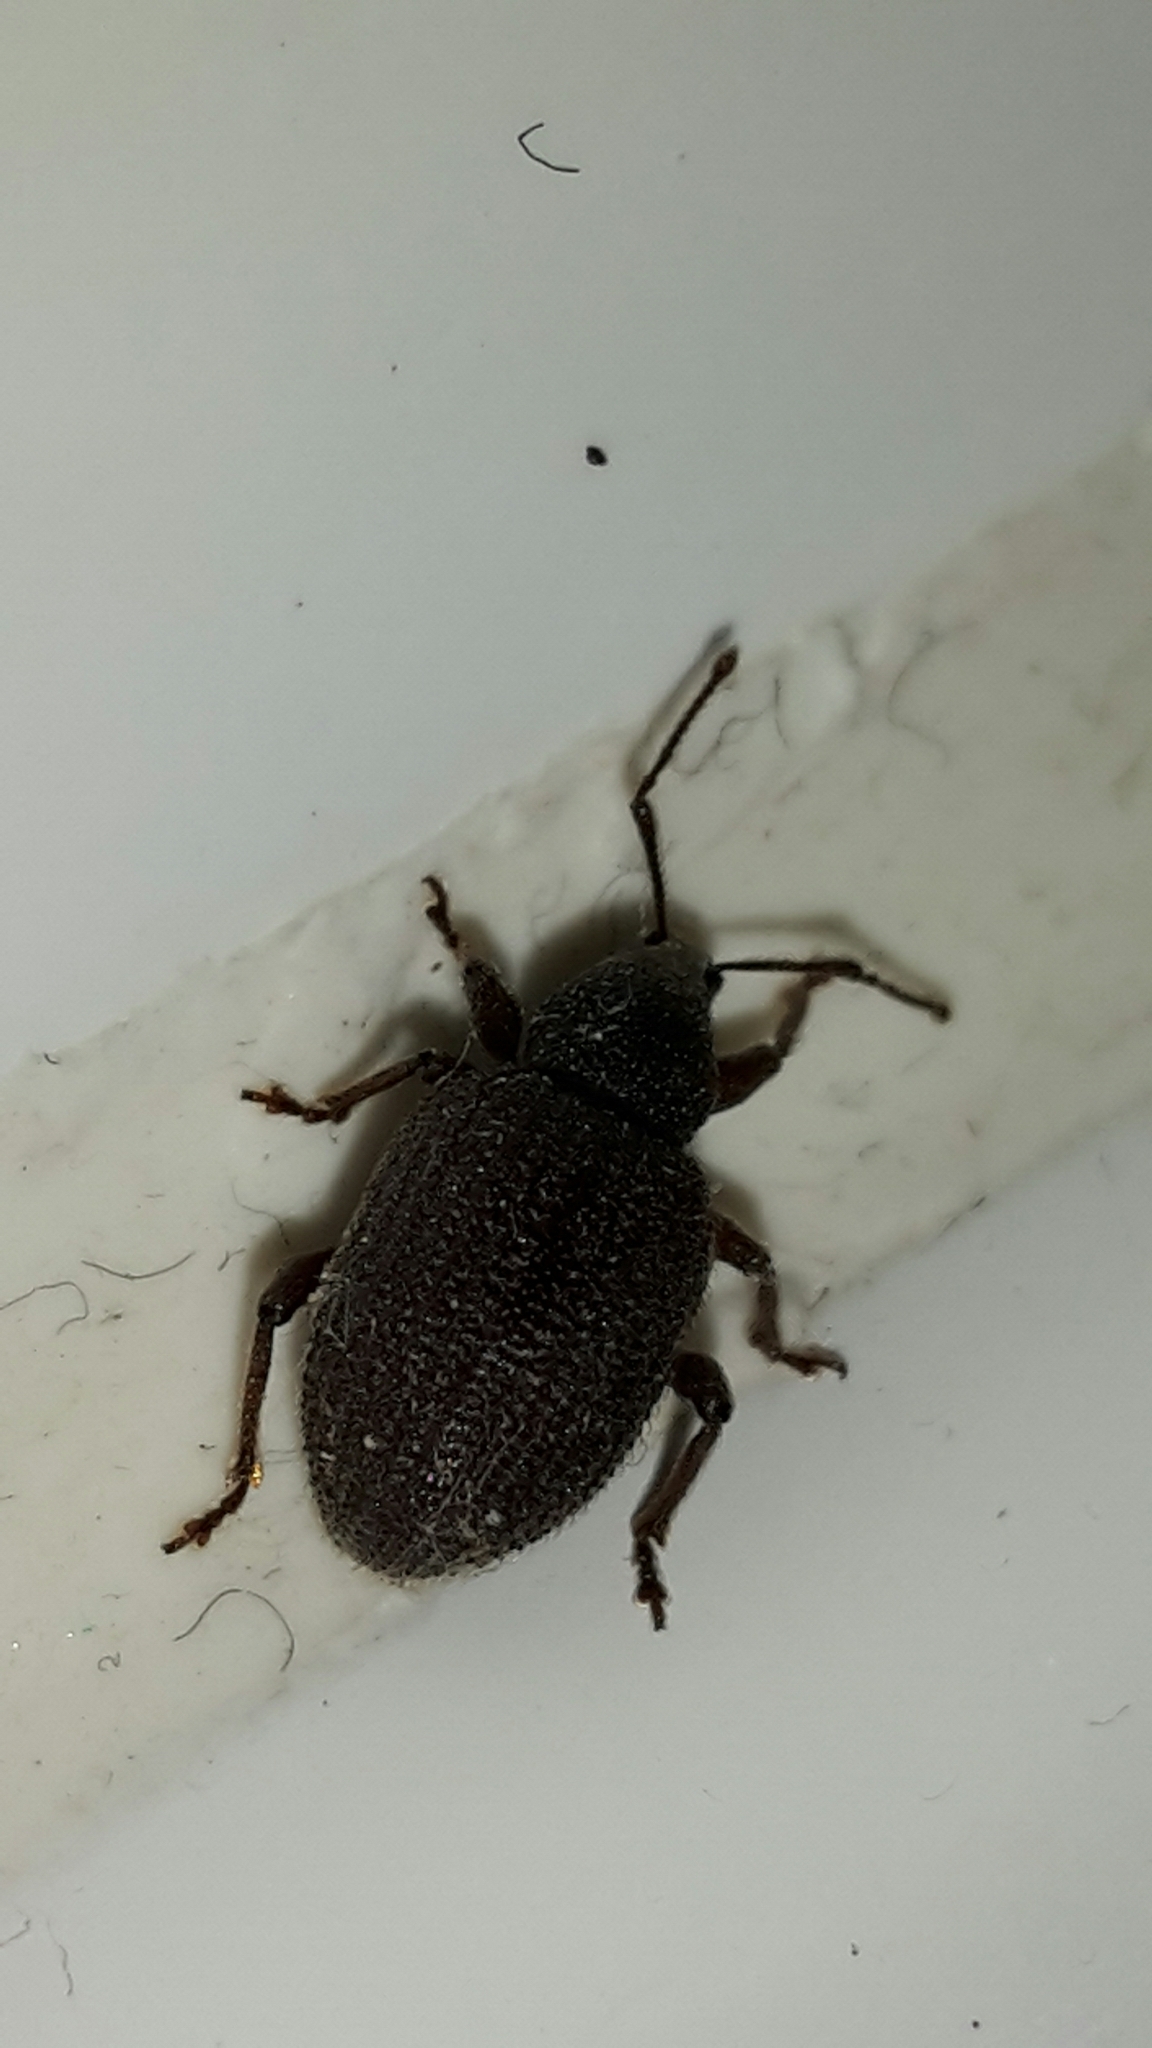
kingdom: Animalia
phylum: Arthropoda
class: Insecta
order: Coleoptera
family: Curculionidae
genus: Otiorhynchus
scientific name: Otiorhynchus rugosostriatus
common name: Weevil
